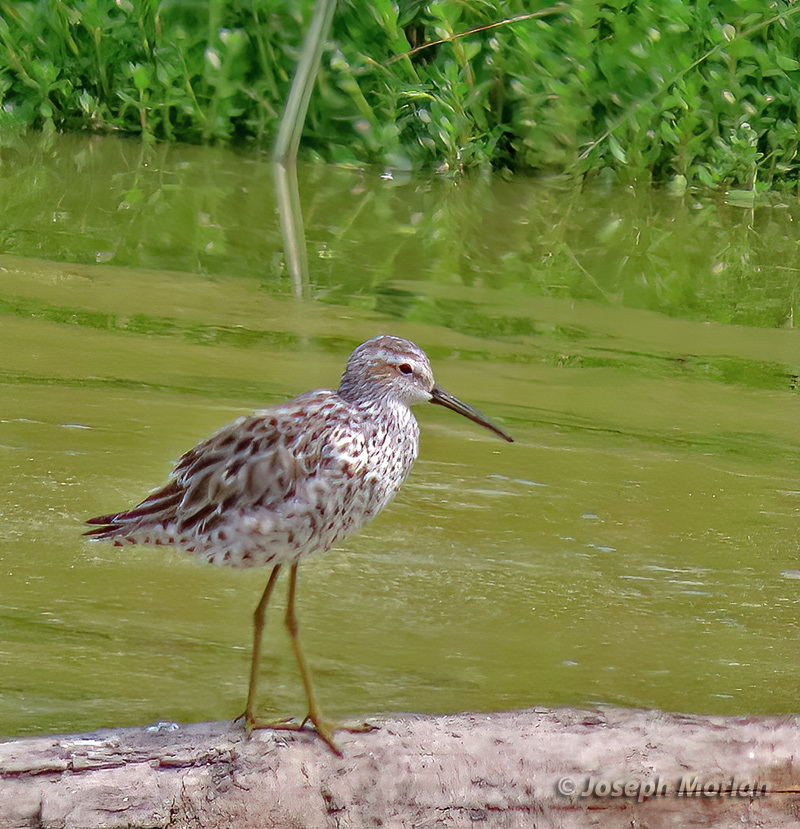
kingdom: Animalia
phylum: Chordata
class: Aves
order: Charadriiformes
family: Scolopacidae
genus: Calidris
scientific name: Calidris himantopus
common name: Stilt sandpiper
